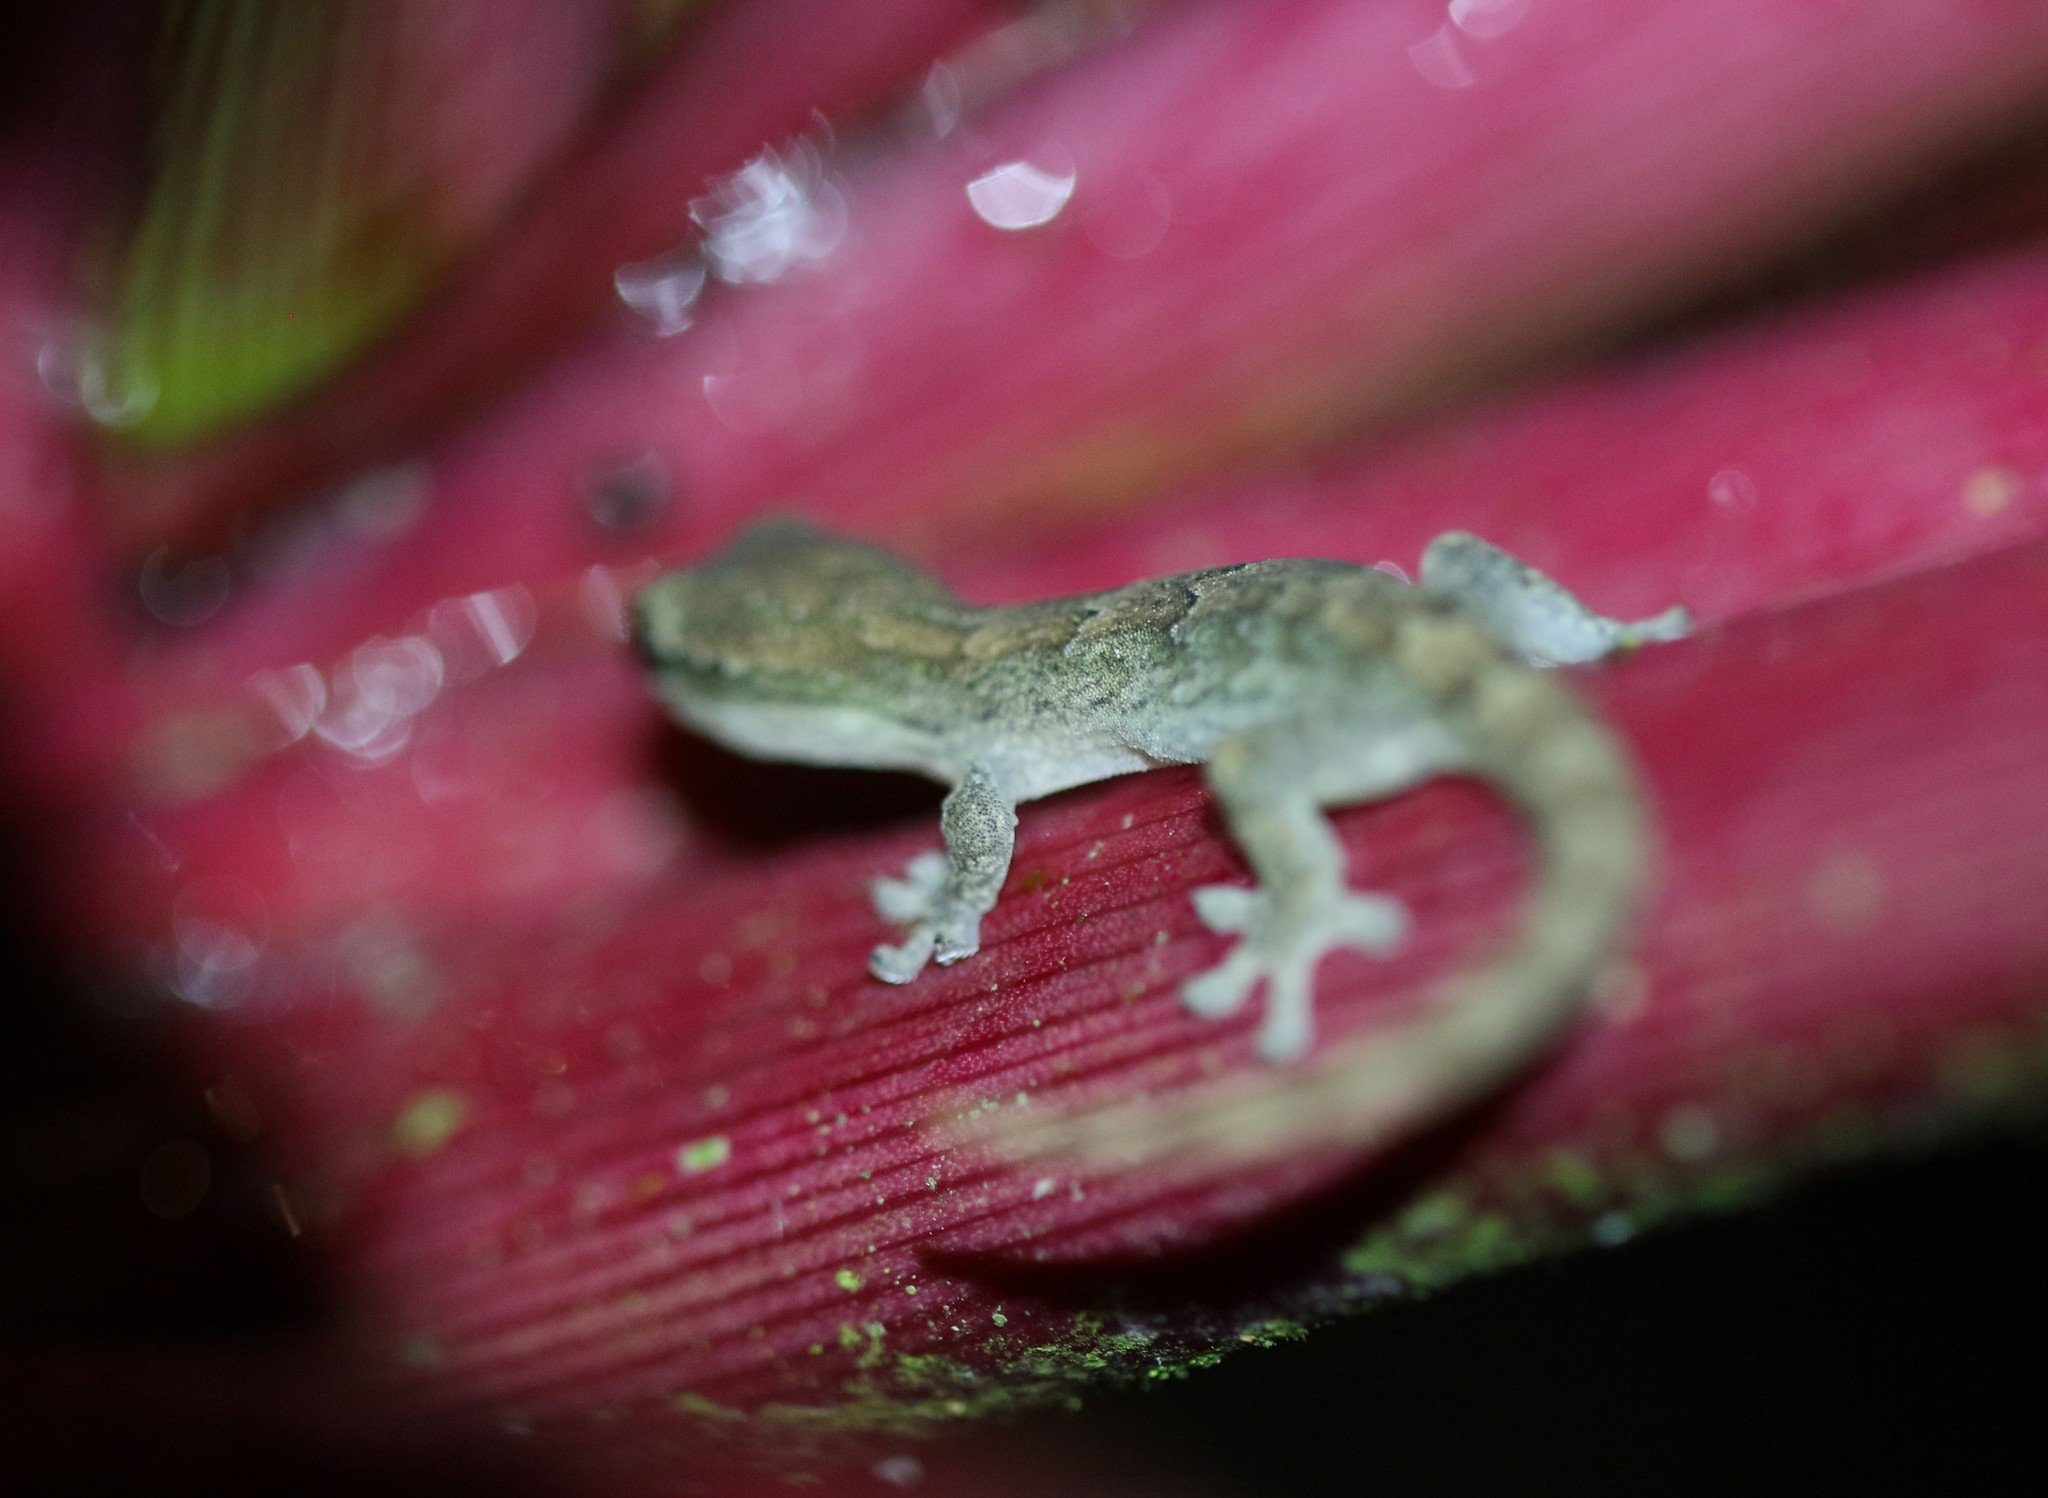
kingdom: Animalia
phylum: Chordata
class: Squamata
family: Gekkonidae
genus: Lepidodactylus
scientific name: Lepidodactylus lugubris
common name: Mourning gecko
